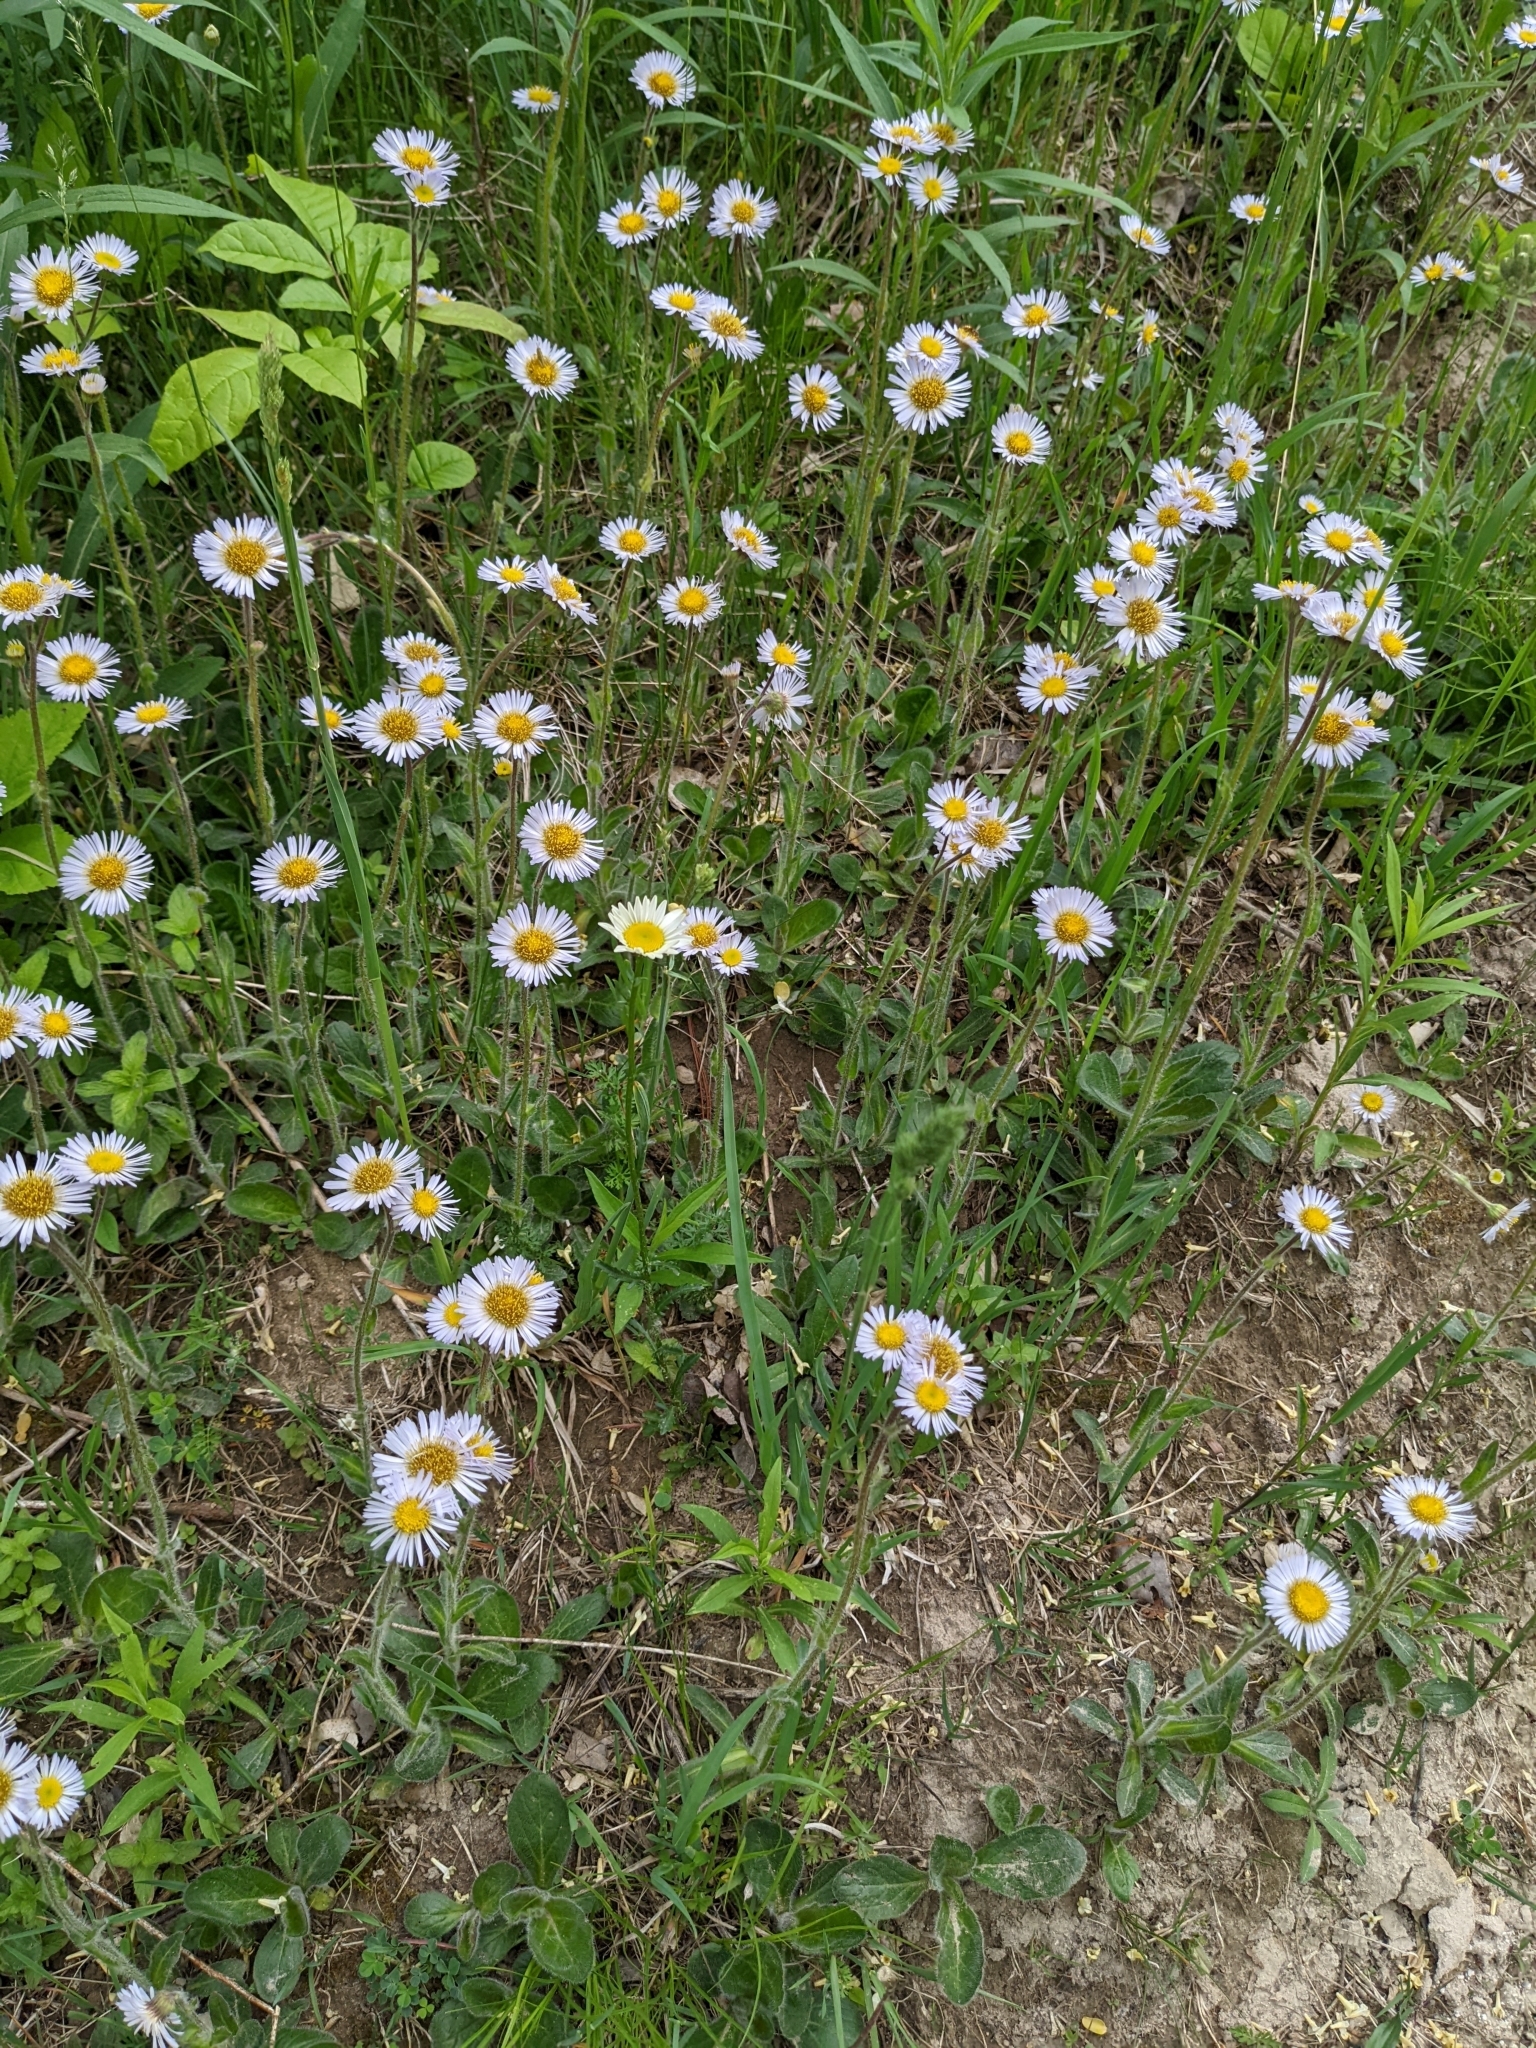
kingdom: Plantae
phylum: Tracheophyta
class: Magnoliopsida
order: Asterales
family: Asteraceae
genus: Erigeron
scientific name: Erigeron pulchellus
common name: Hairy fleabane
